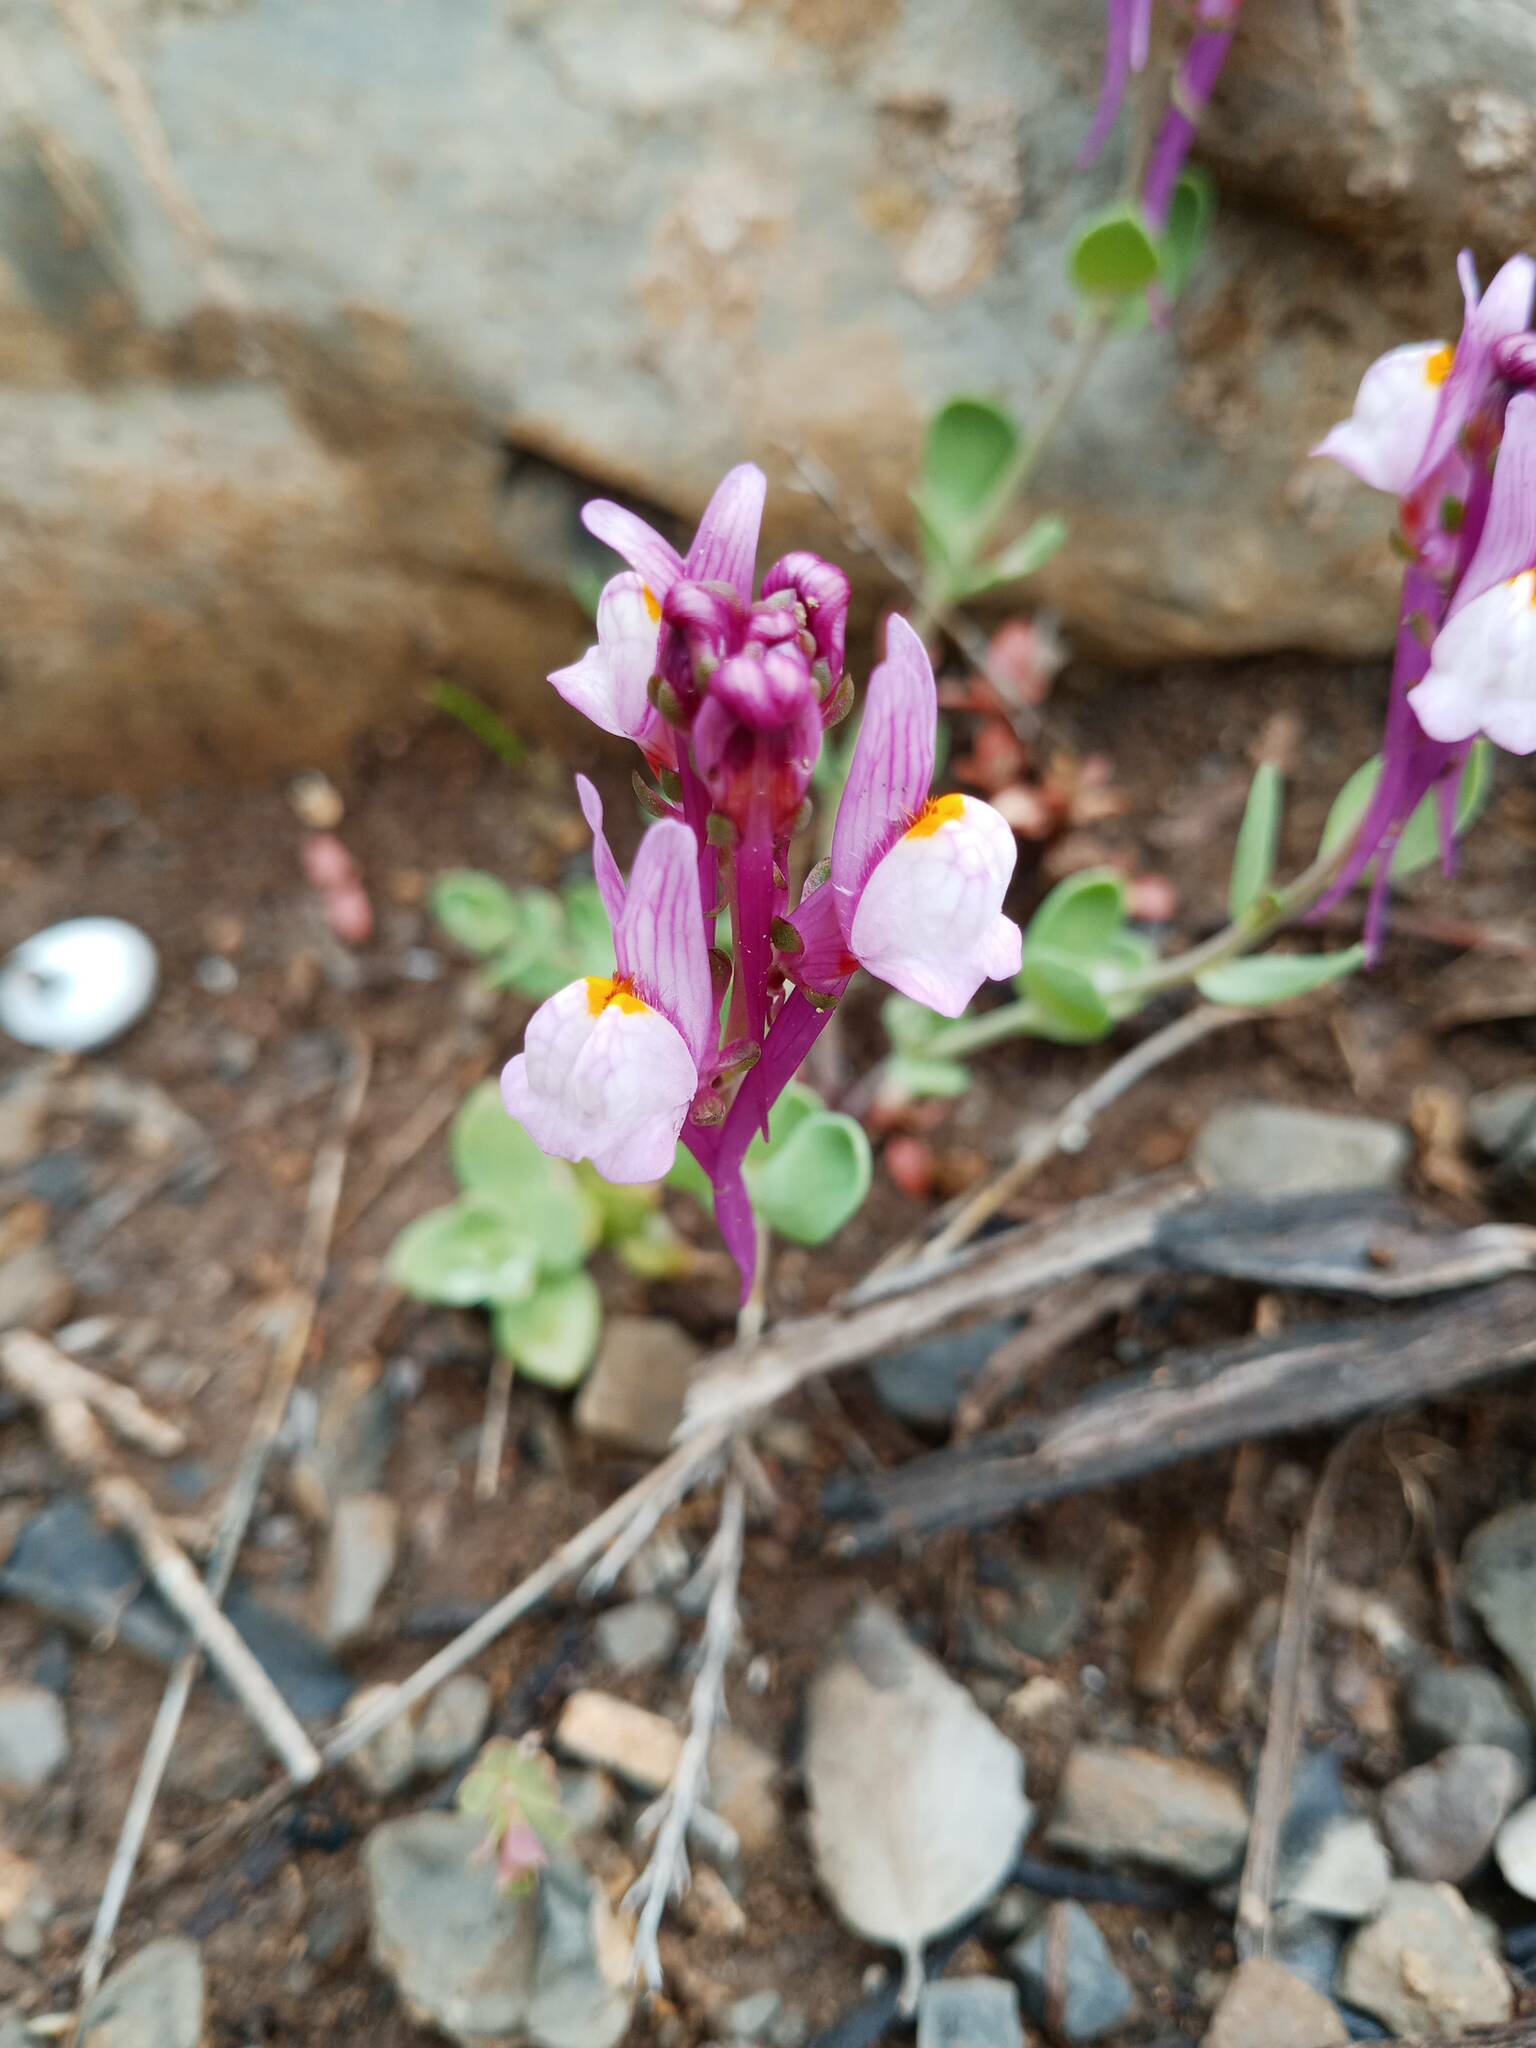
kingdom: Plantae
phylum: Tracheophyta
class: Magnoliopsida
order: Lamiales
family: Plantaginaceae
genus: Linaria
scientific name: Linaria virgata
